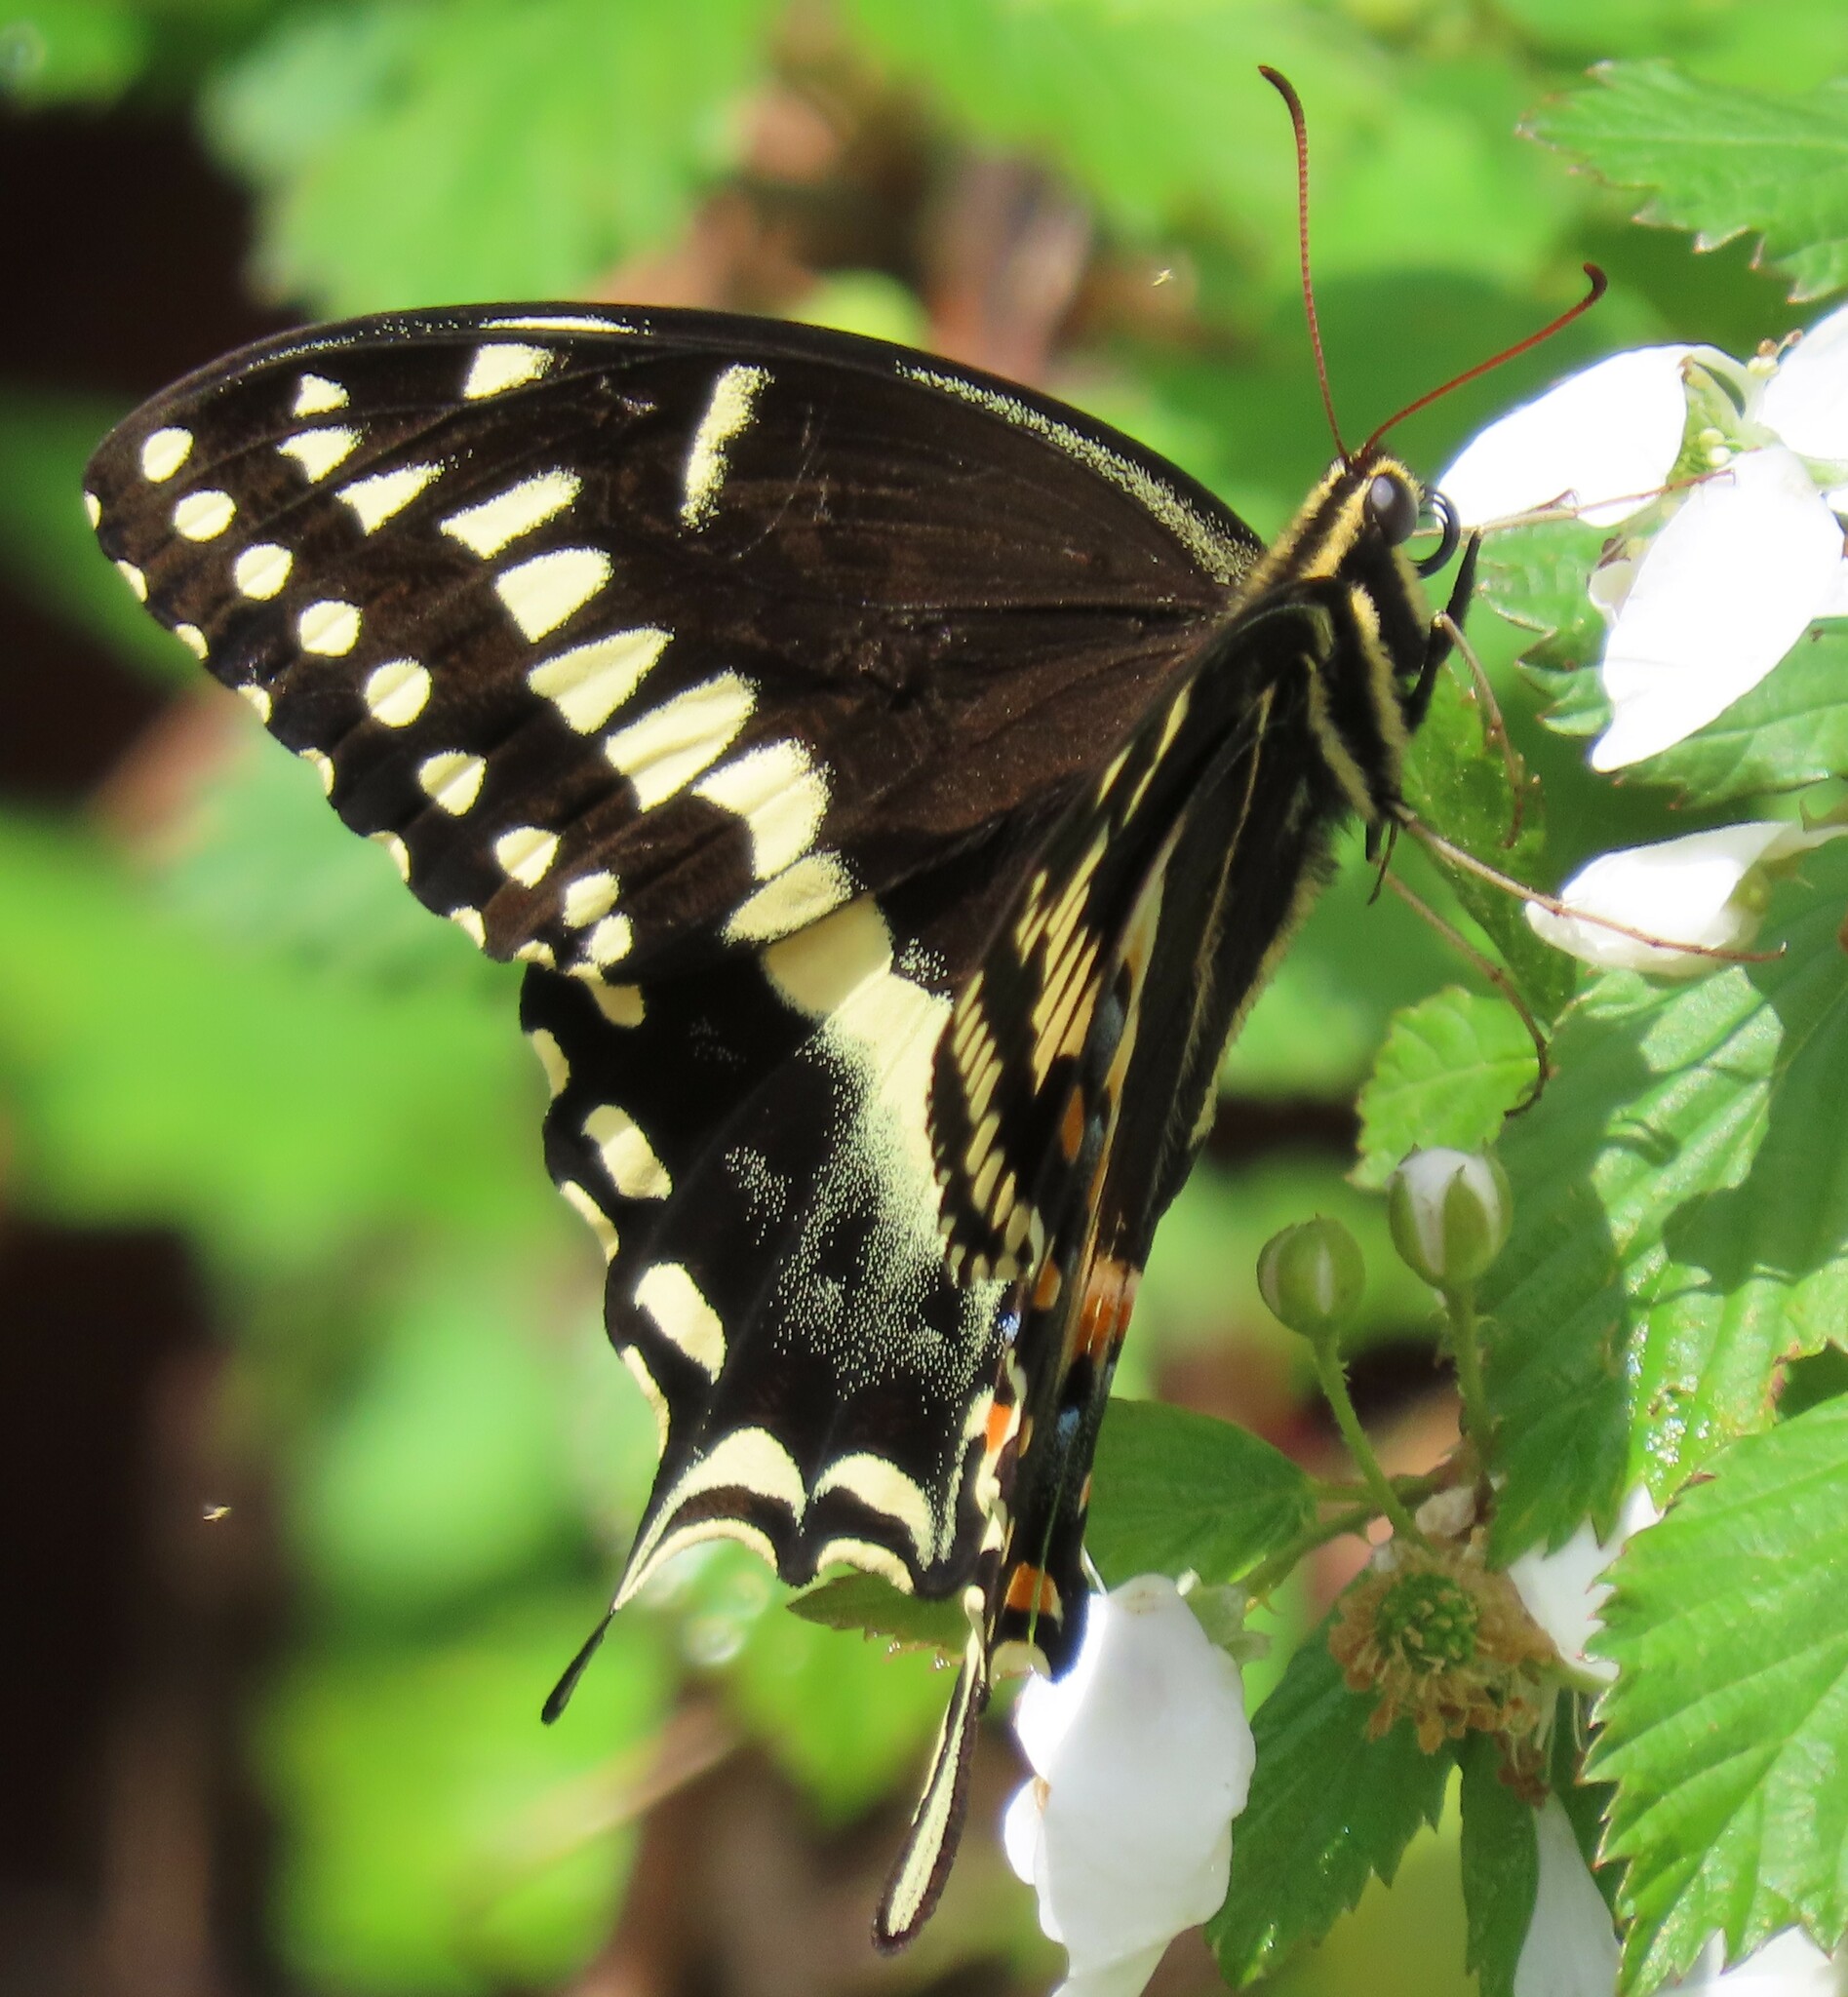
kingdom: Animalia
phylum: Arthropoda
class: Insecta
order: Lepidoptera
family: Papilionidae
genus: Papilio
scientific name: Papilio palamedes
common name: Palamedes swallowtail
